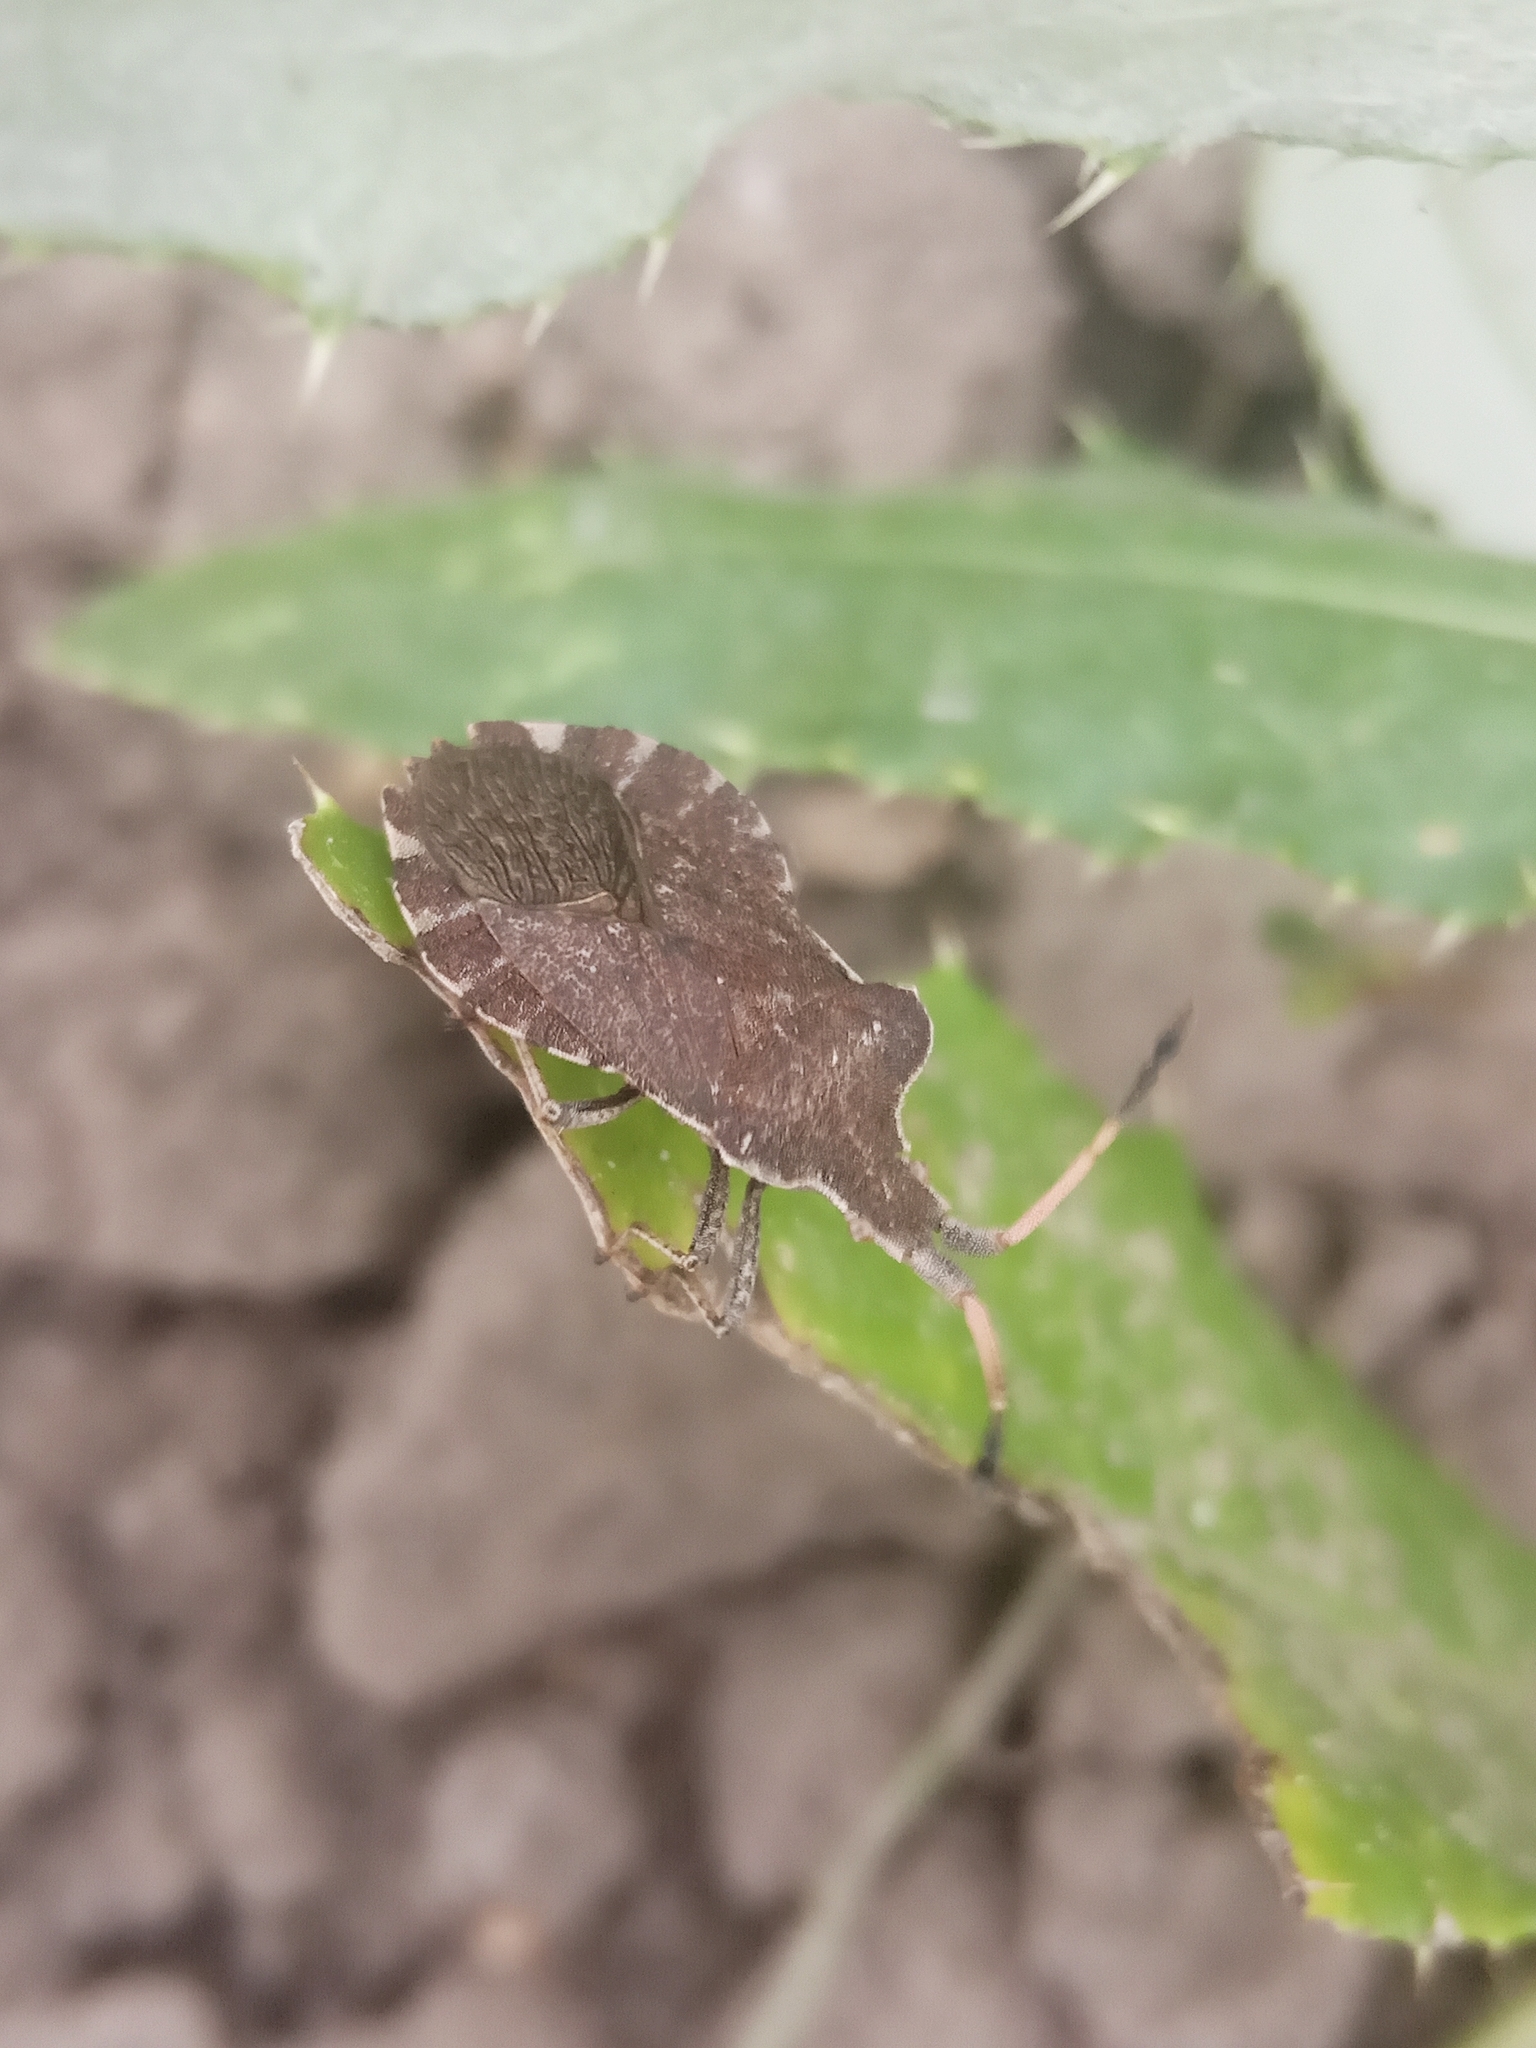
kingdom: Animalia
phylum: Arthropoda
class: Insecta
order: Hemiptera
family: Coreidae
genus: Enoplops
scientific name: Enoplops scapha
